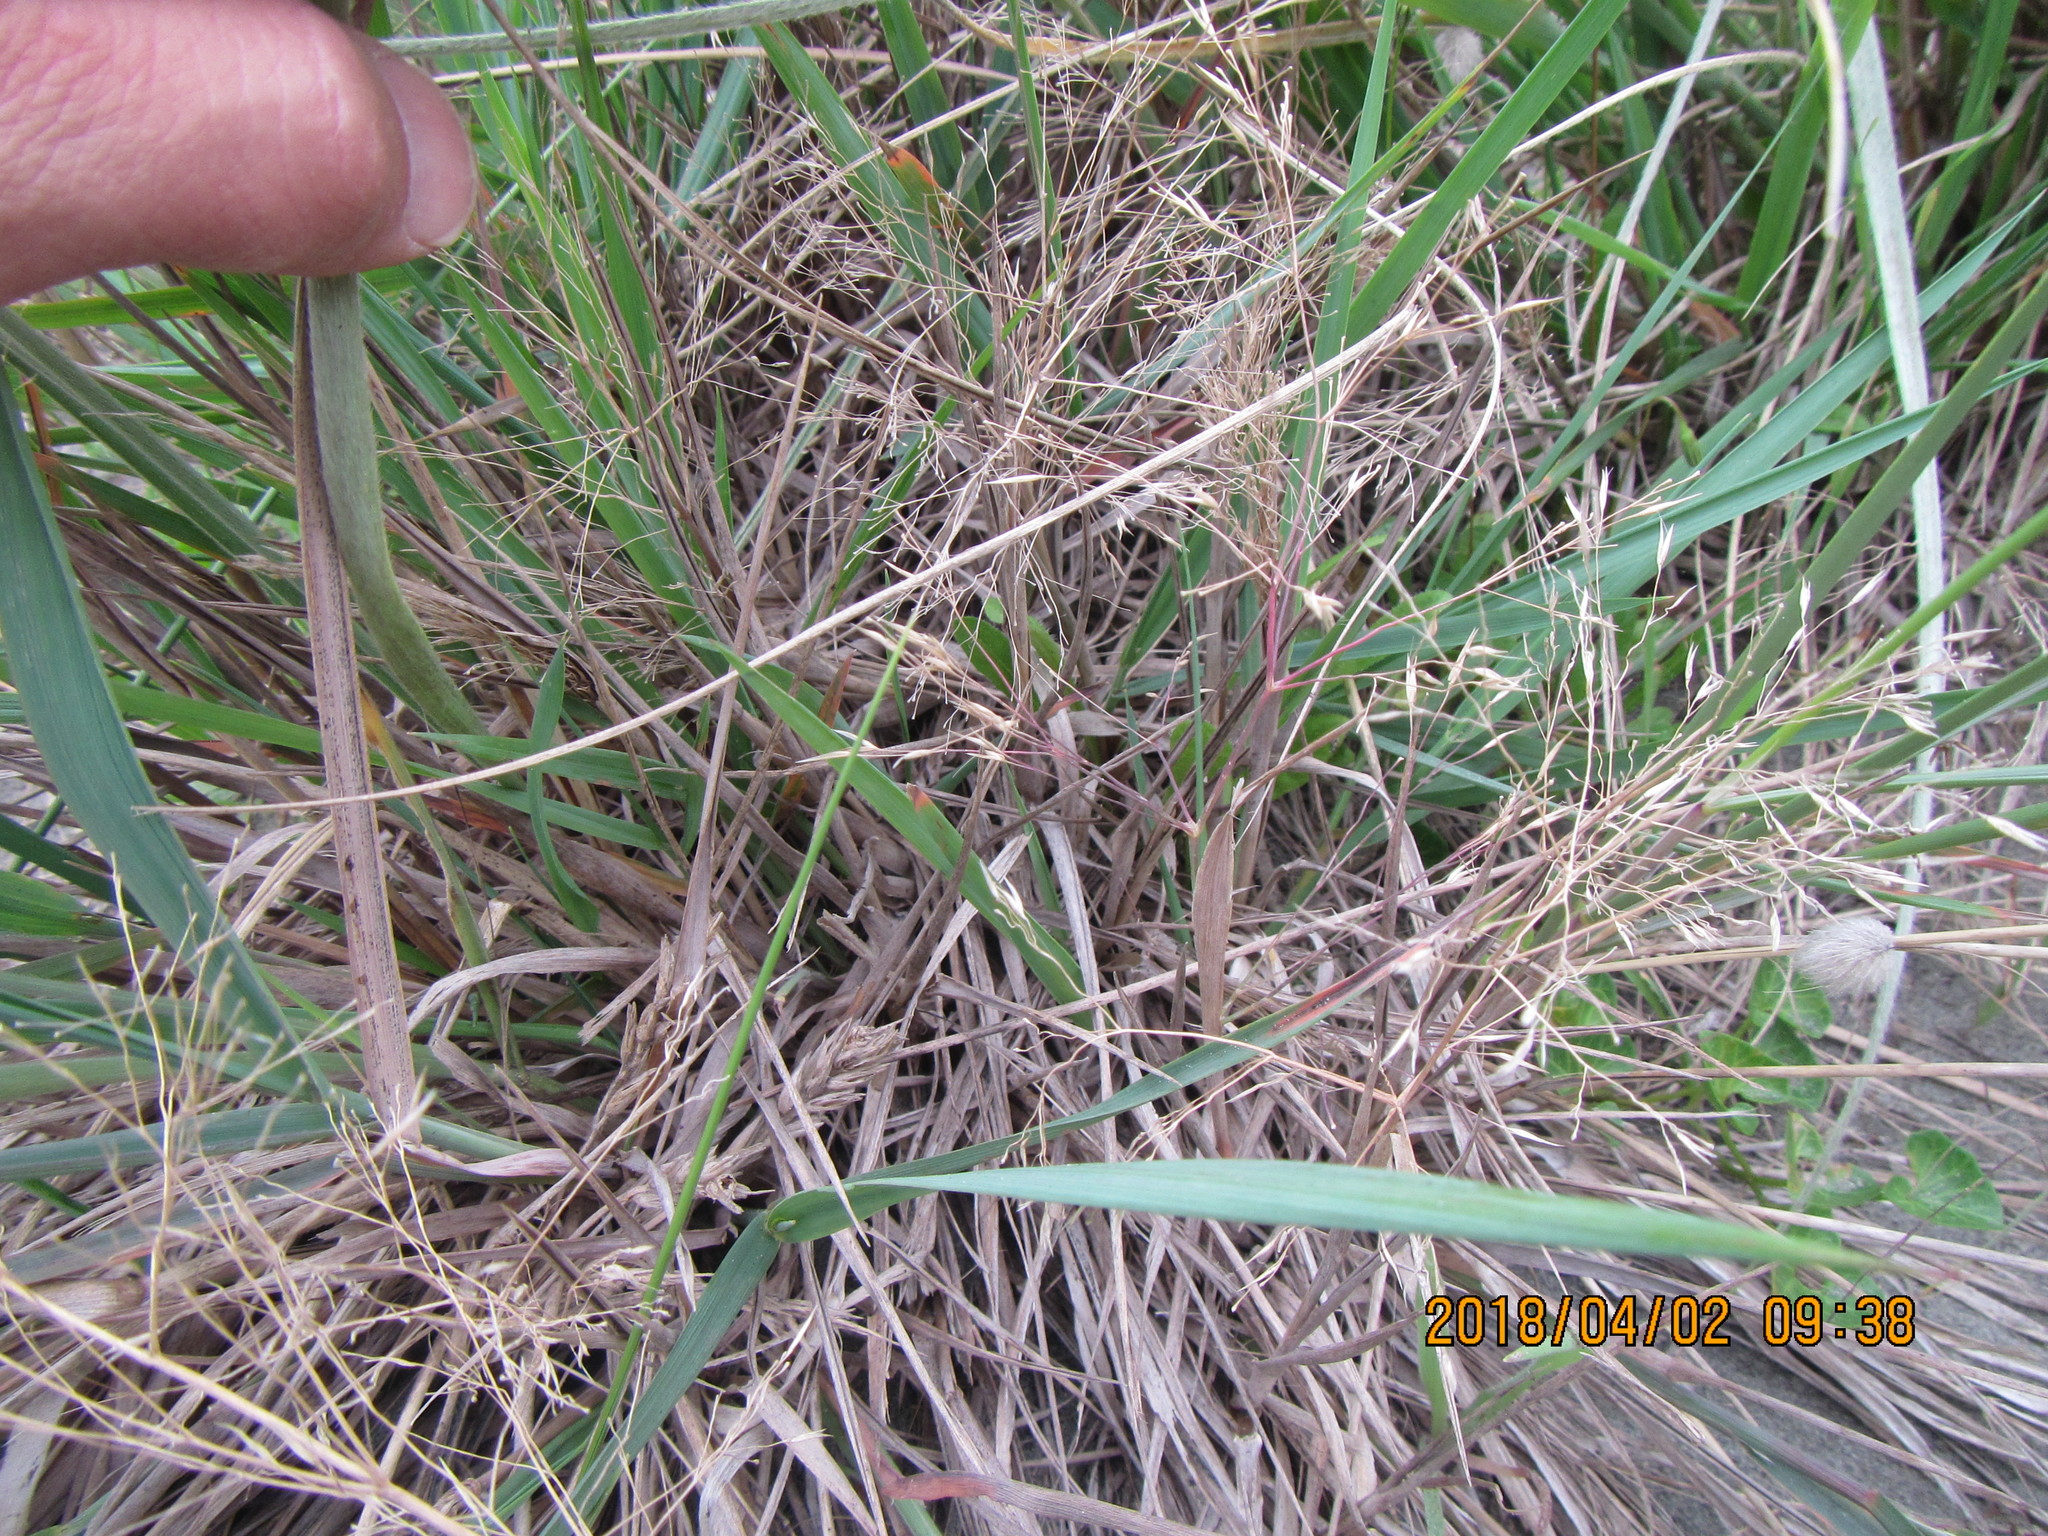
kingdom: Plantae
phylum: Tracheophyta
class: Liliopsida
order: Poales
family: Poaceae
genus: Lachnagrostis
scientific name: Lachnagrostis billardierei
